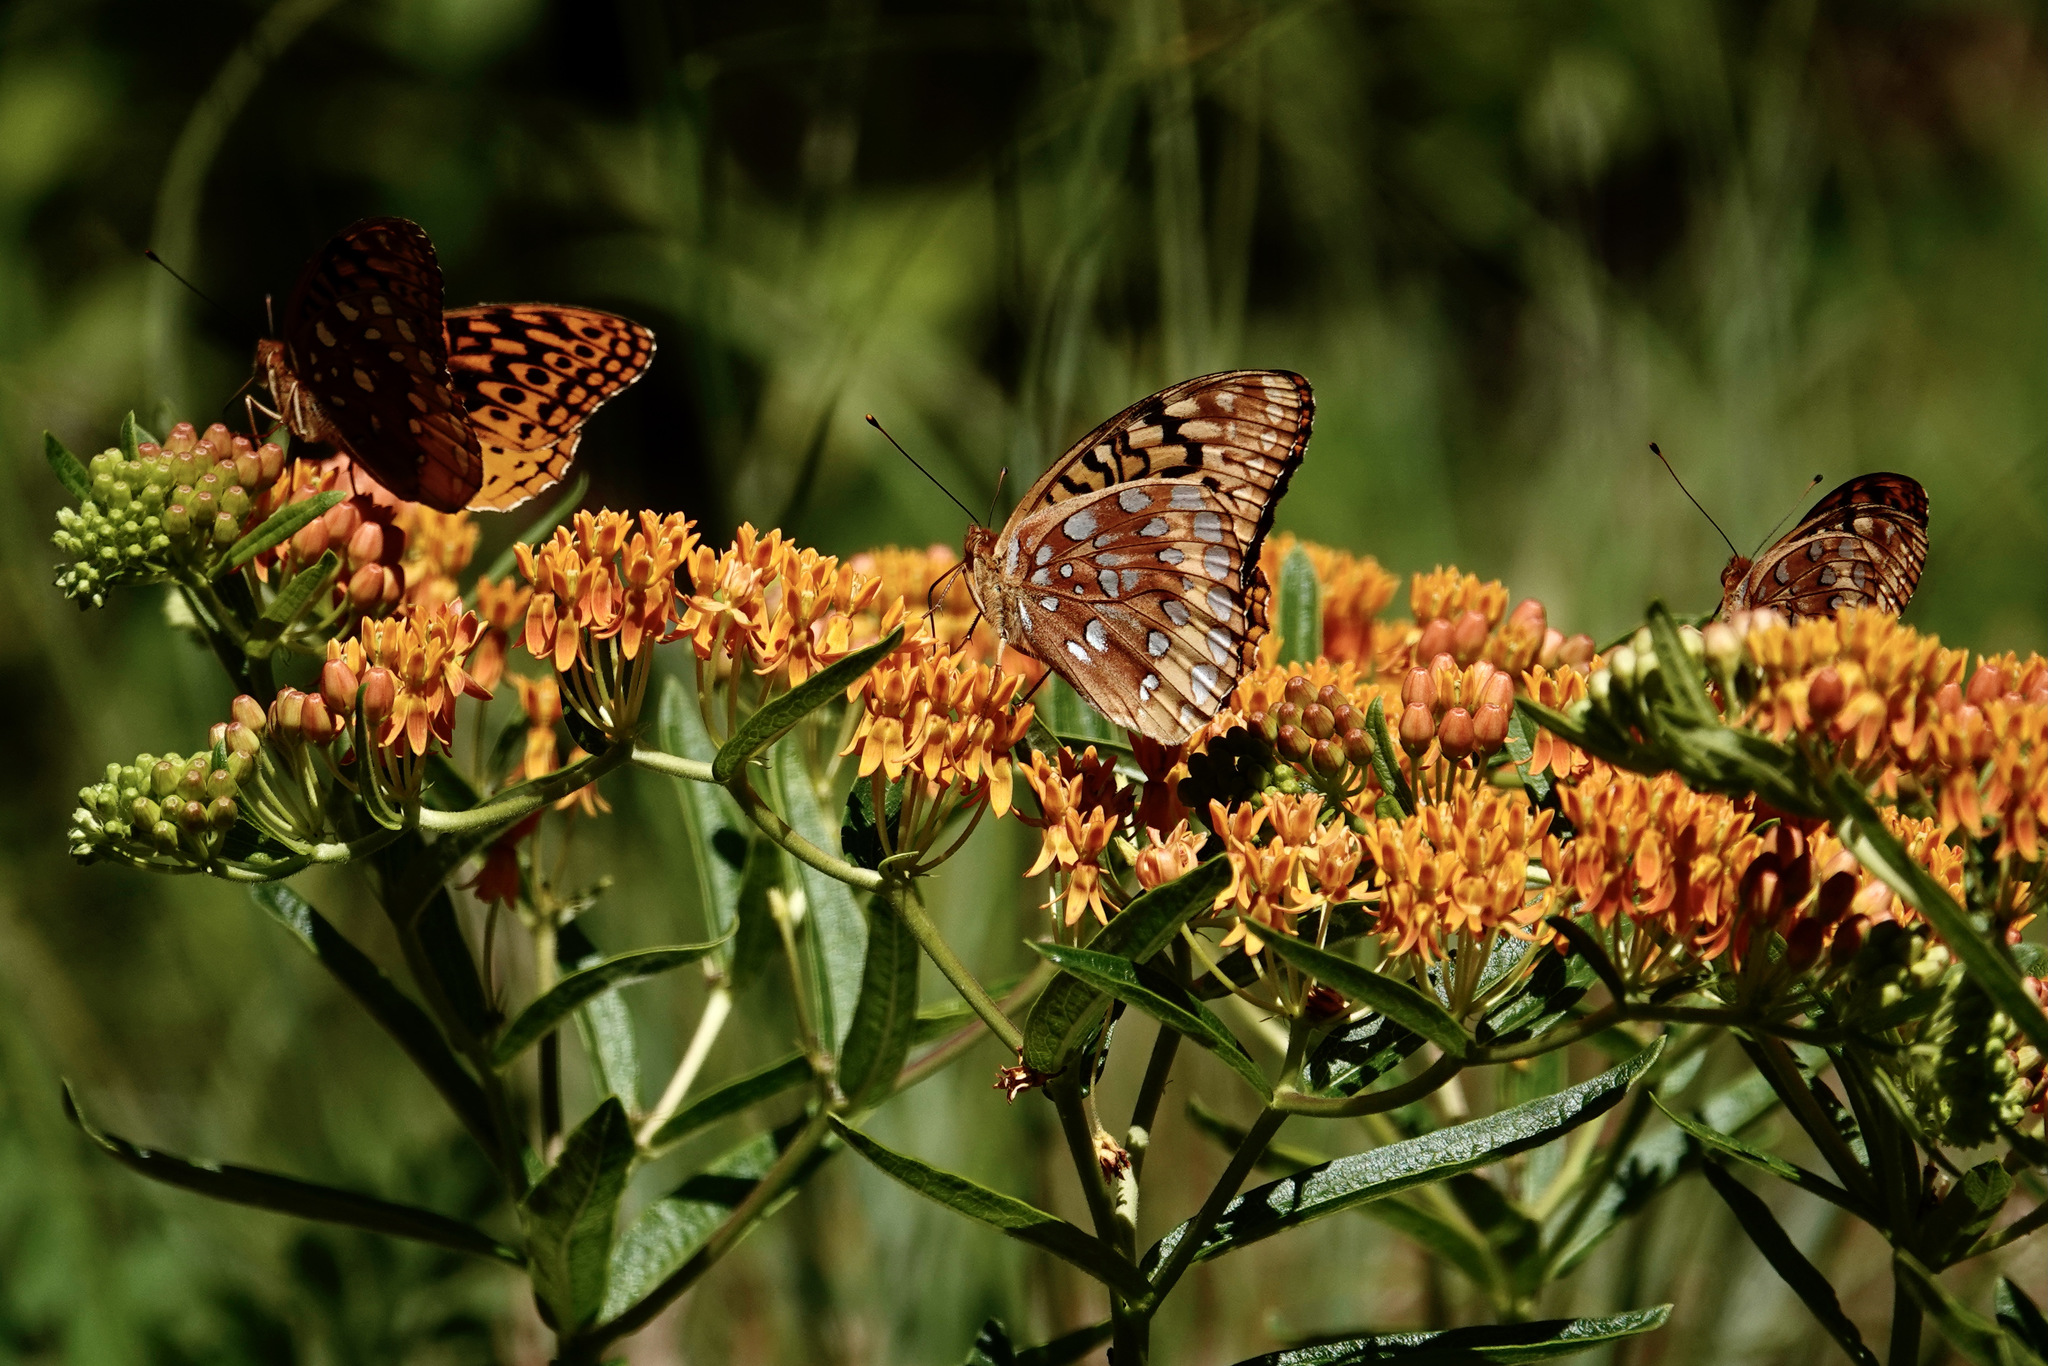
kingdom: Animalia
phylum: Arthropoda
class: Insecta
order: Lepidoptera
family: Nymphalidae
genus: Speyeria
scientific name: Speyeria cybele
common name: Great spangled fritillary
